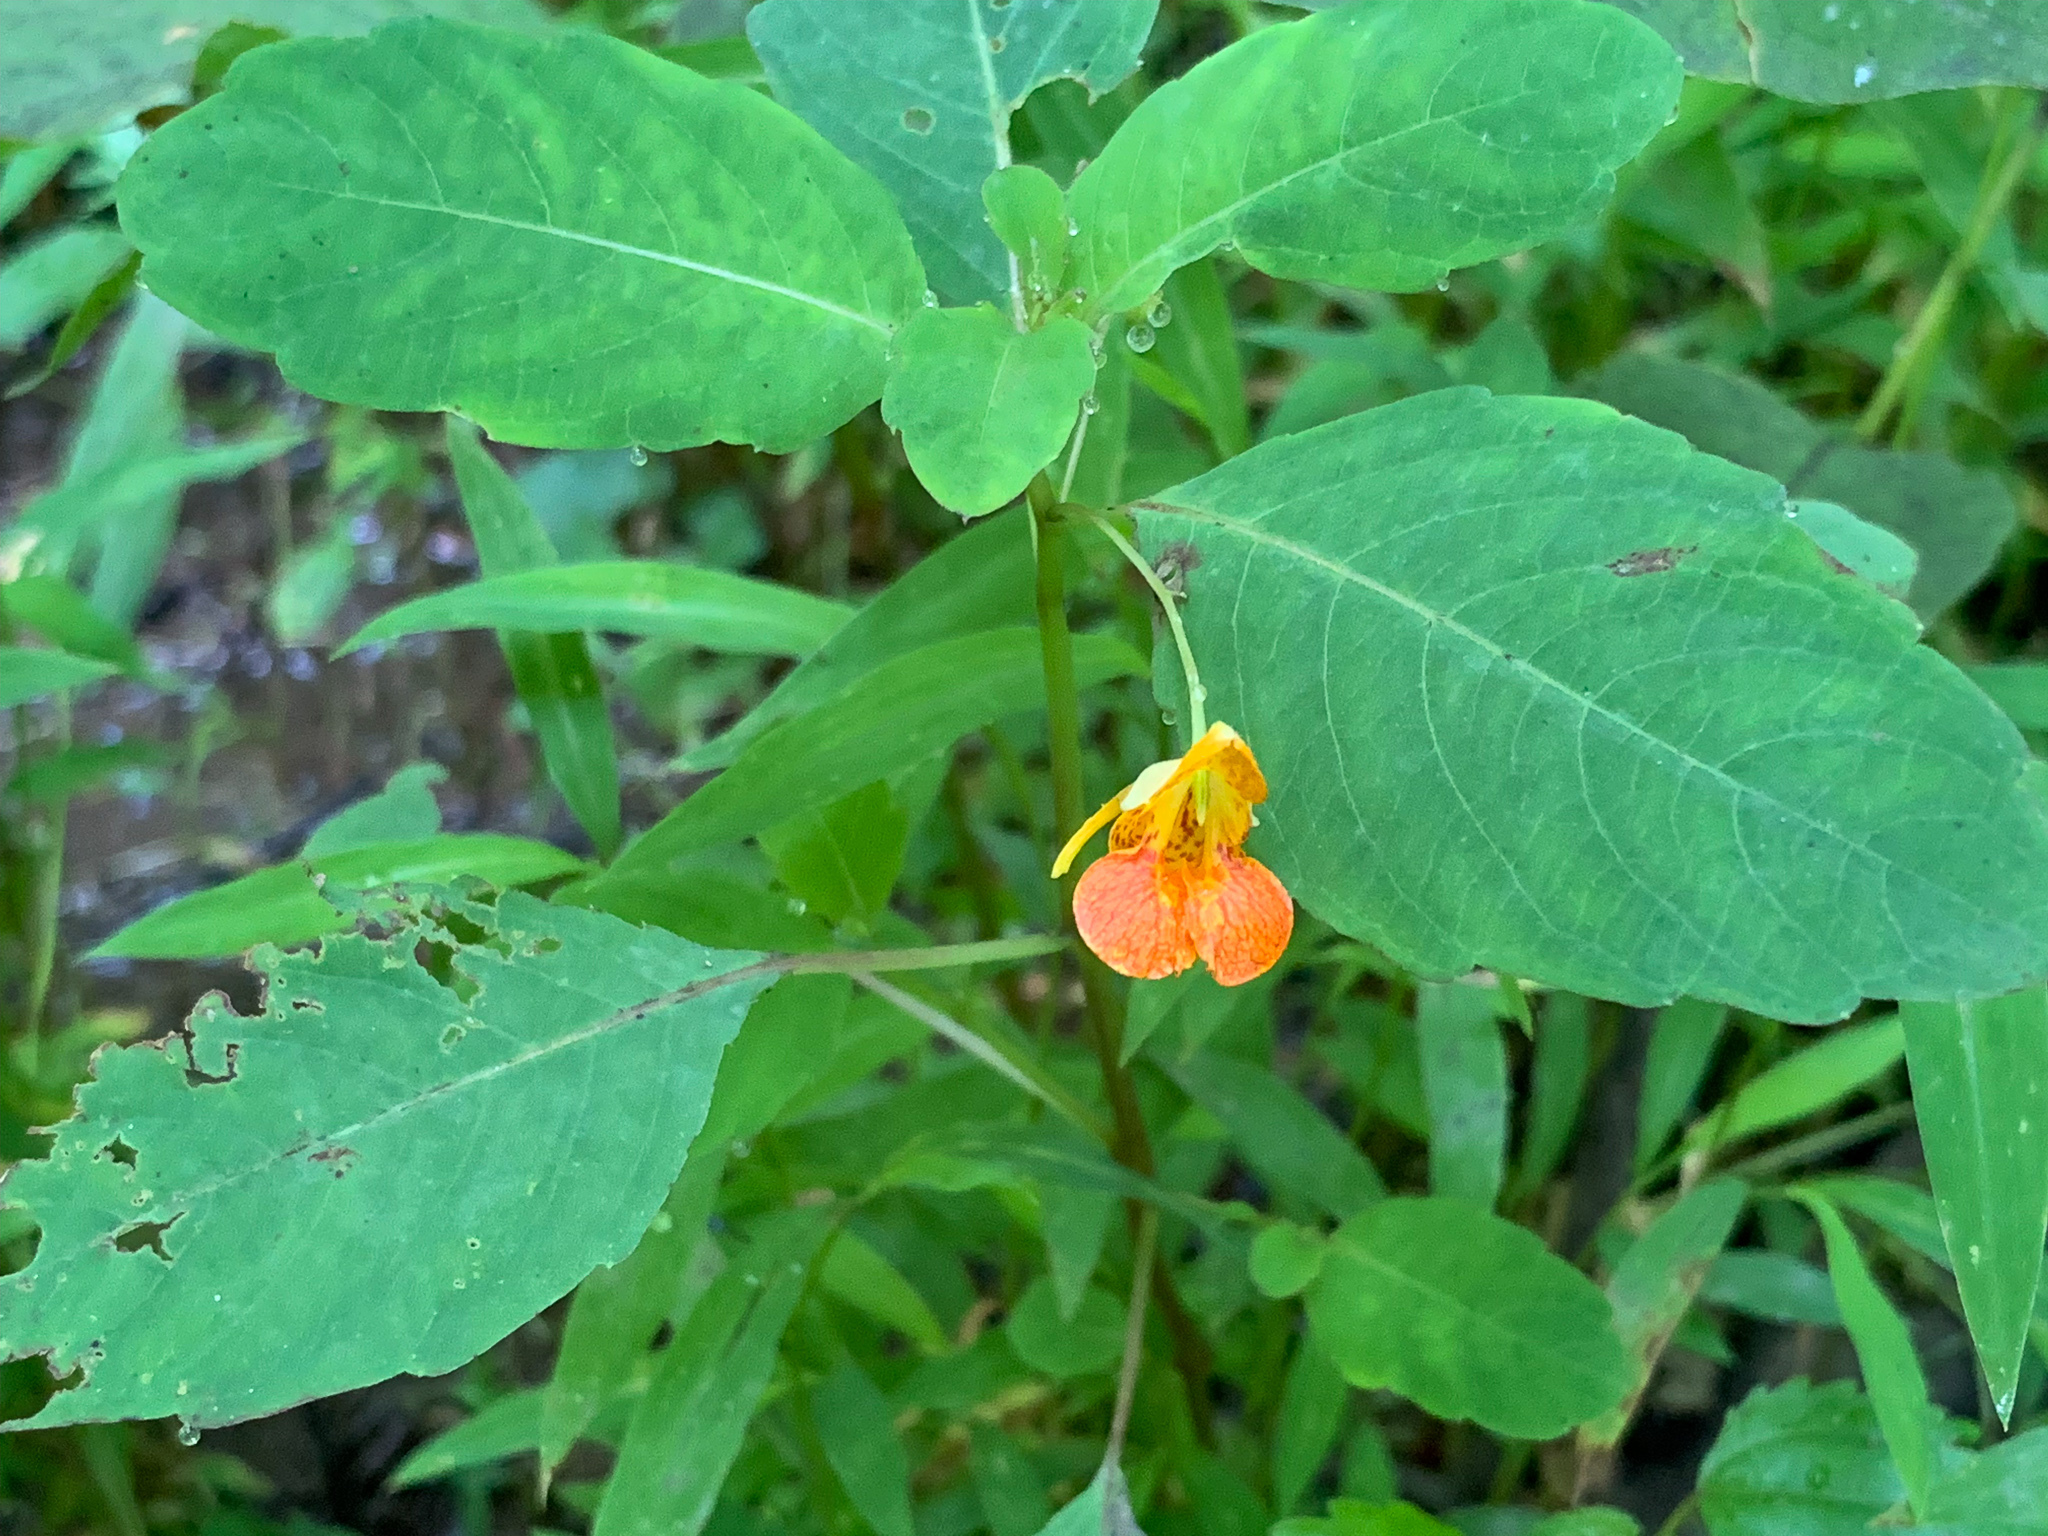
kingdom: Plantae
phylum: Tracheophyta
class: Magnoliopsida
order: Ericales
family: Balsaminaceae
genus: Impatiens
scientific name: Impatiens capensis
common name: Orange balsam
